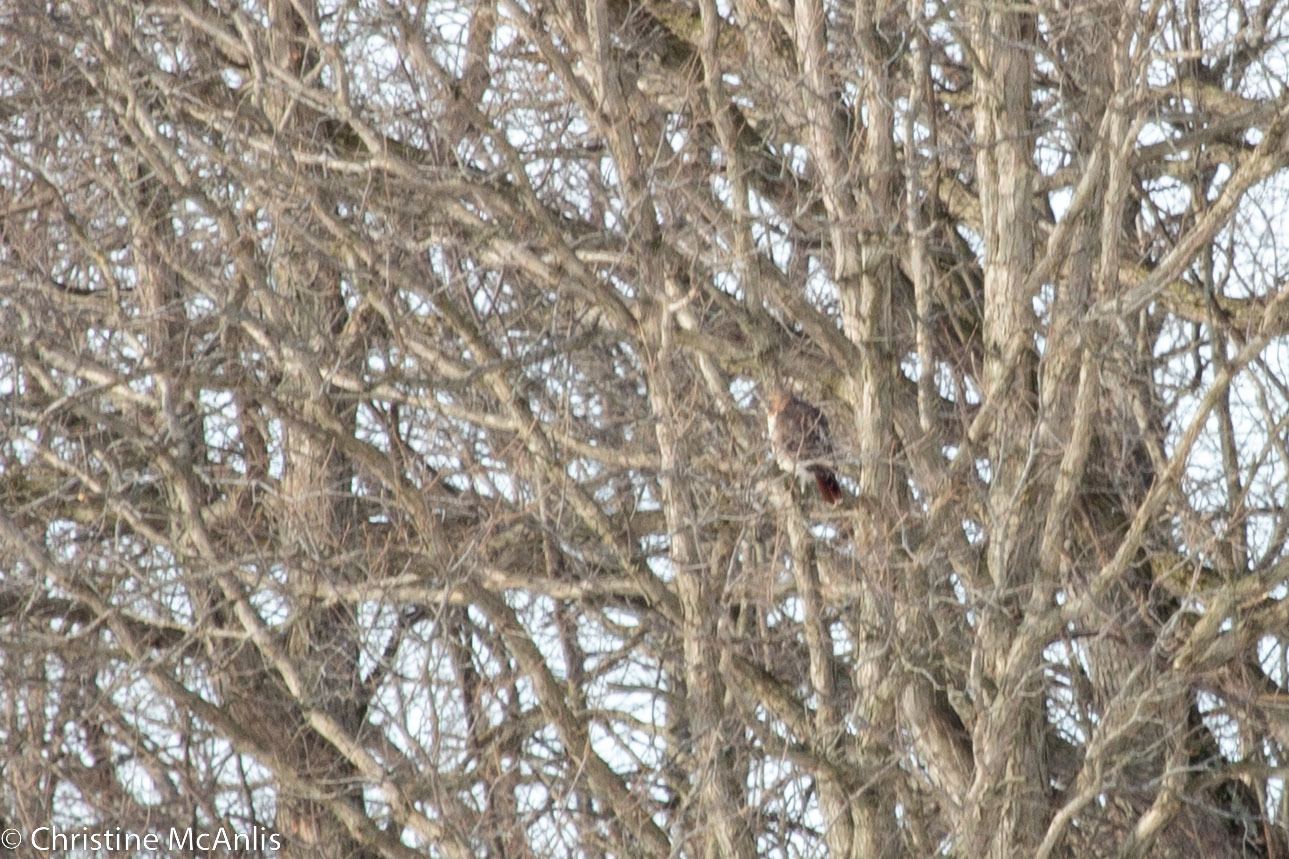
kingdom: Animalia
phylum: Chordata
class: Aves
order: Accipitriformes
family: Accipitridae
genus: Buteo
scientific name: Buteo jamaicensis
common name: Red-tailed hawk
